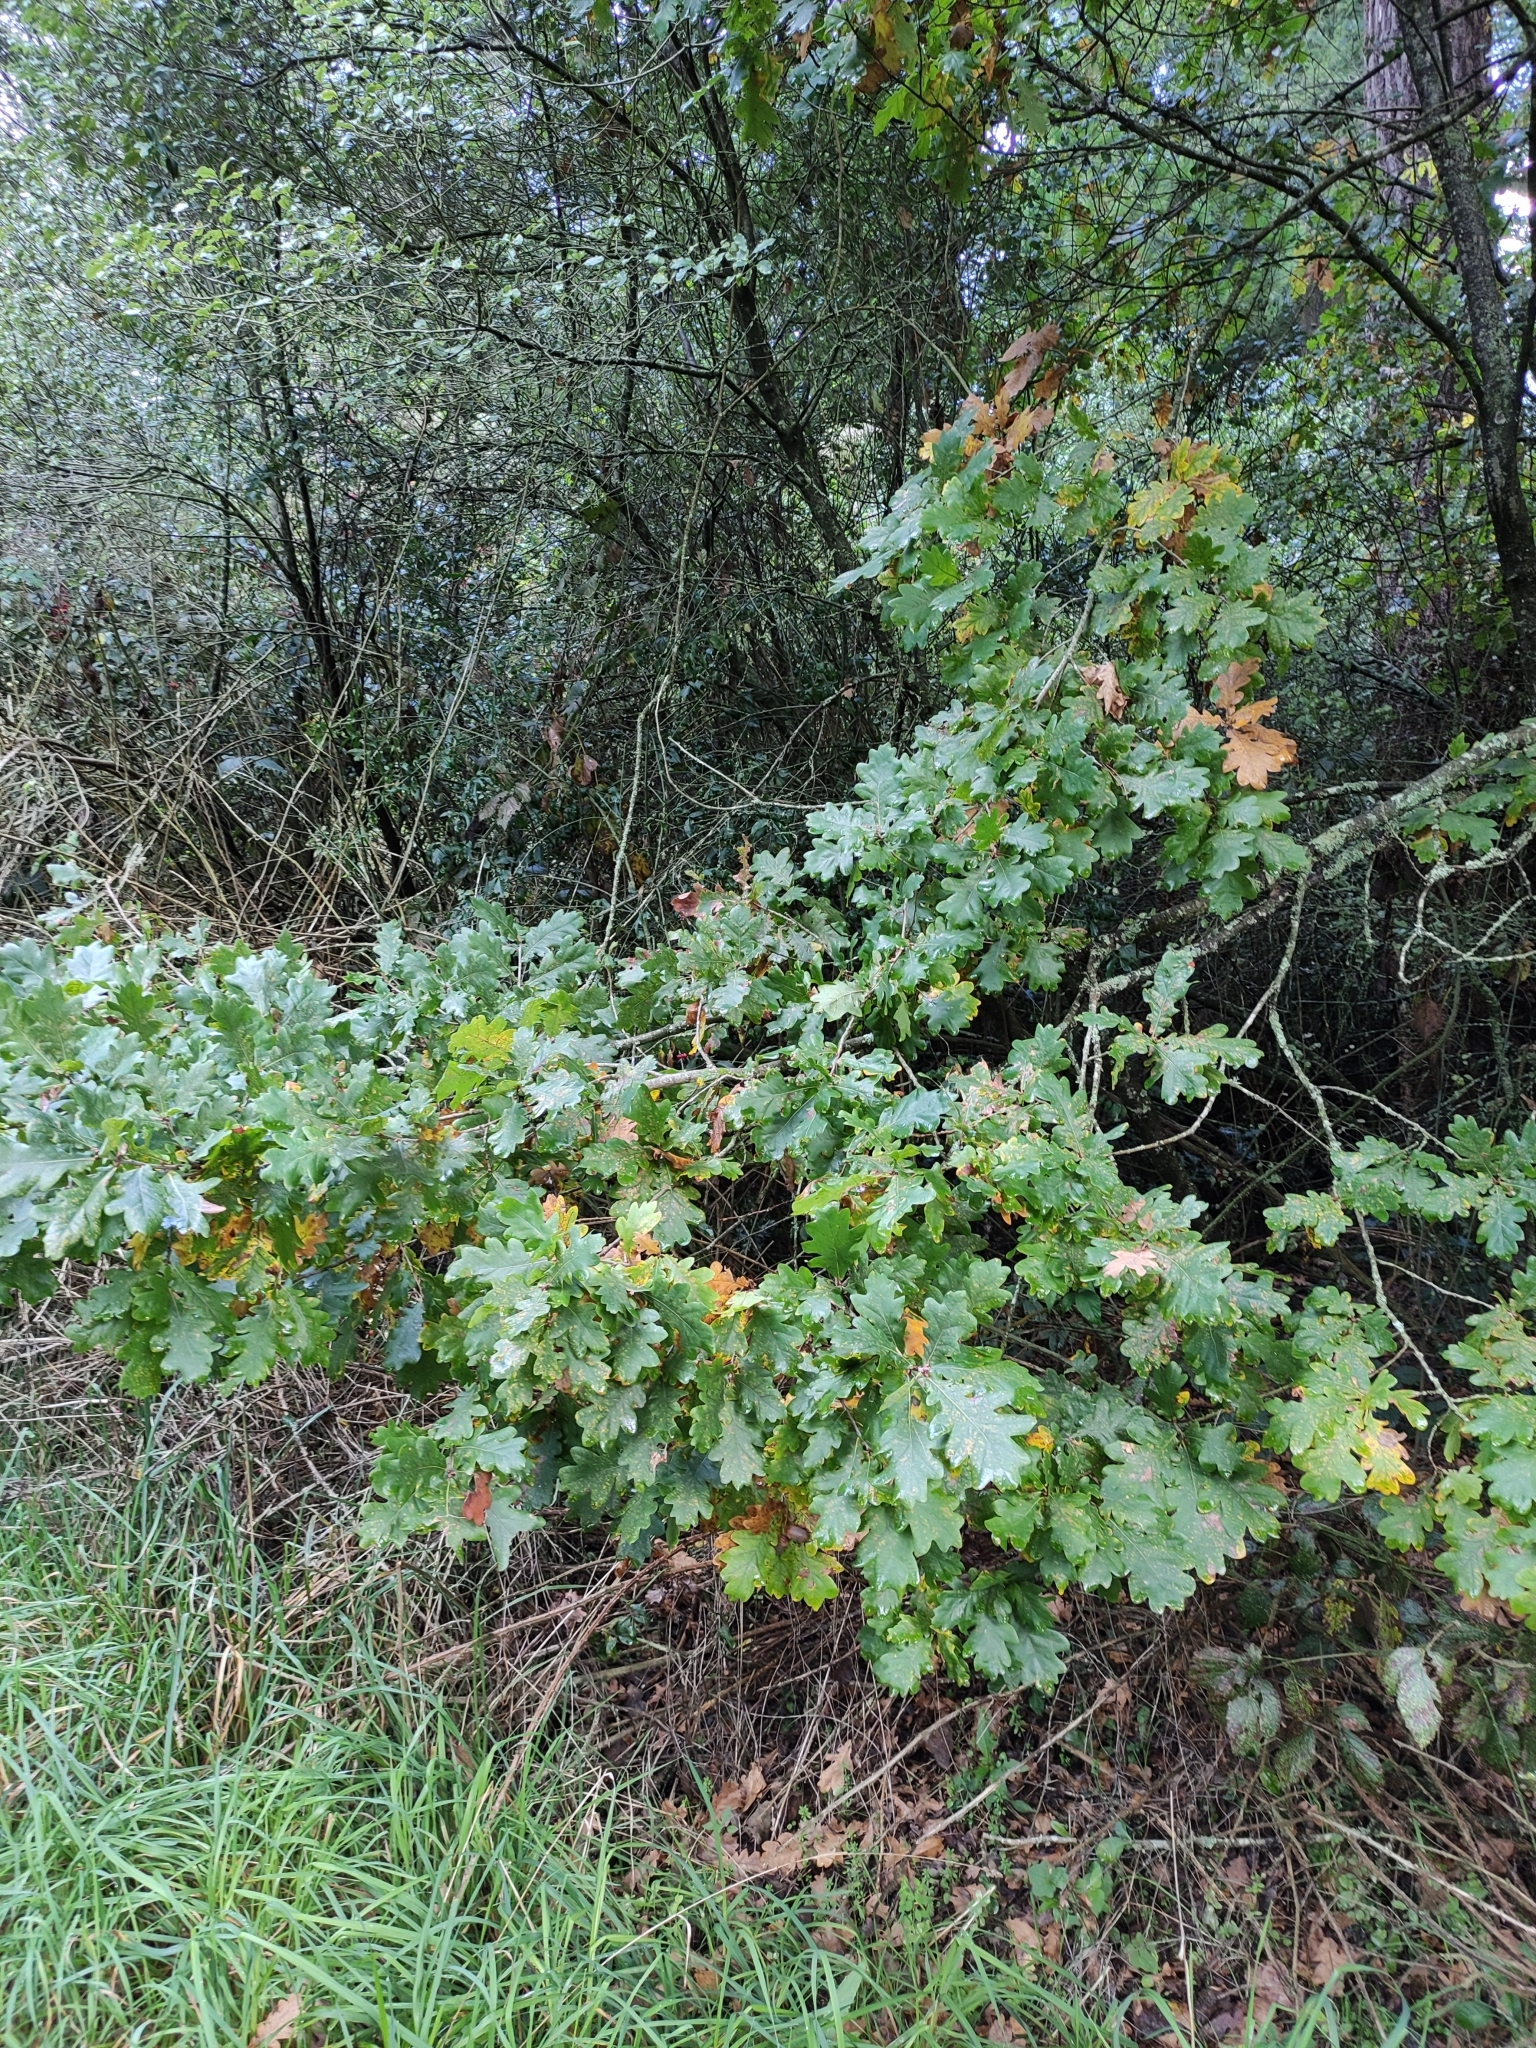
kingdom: Plantae
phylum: Tracheophyta
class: Magnoliopsida
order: Fagales
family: Fagaceae
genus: Quercus
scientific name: Quercus robur
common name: Pedunculate oak
